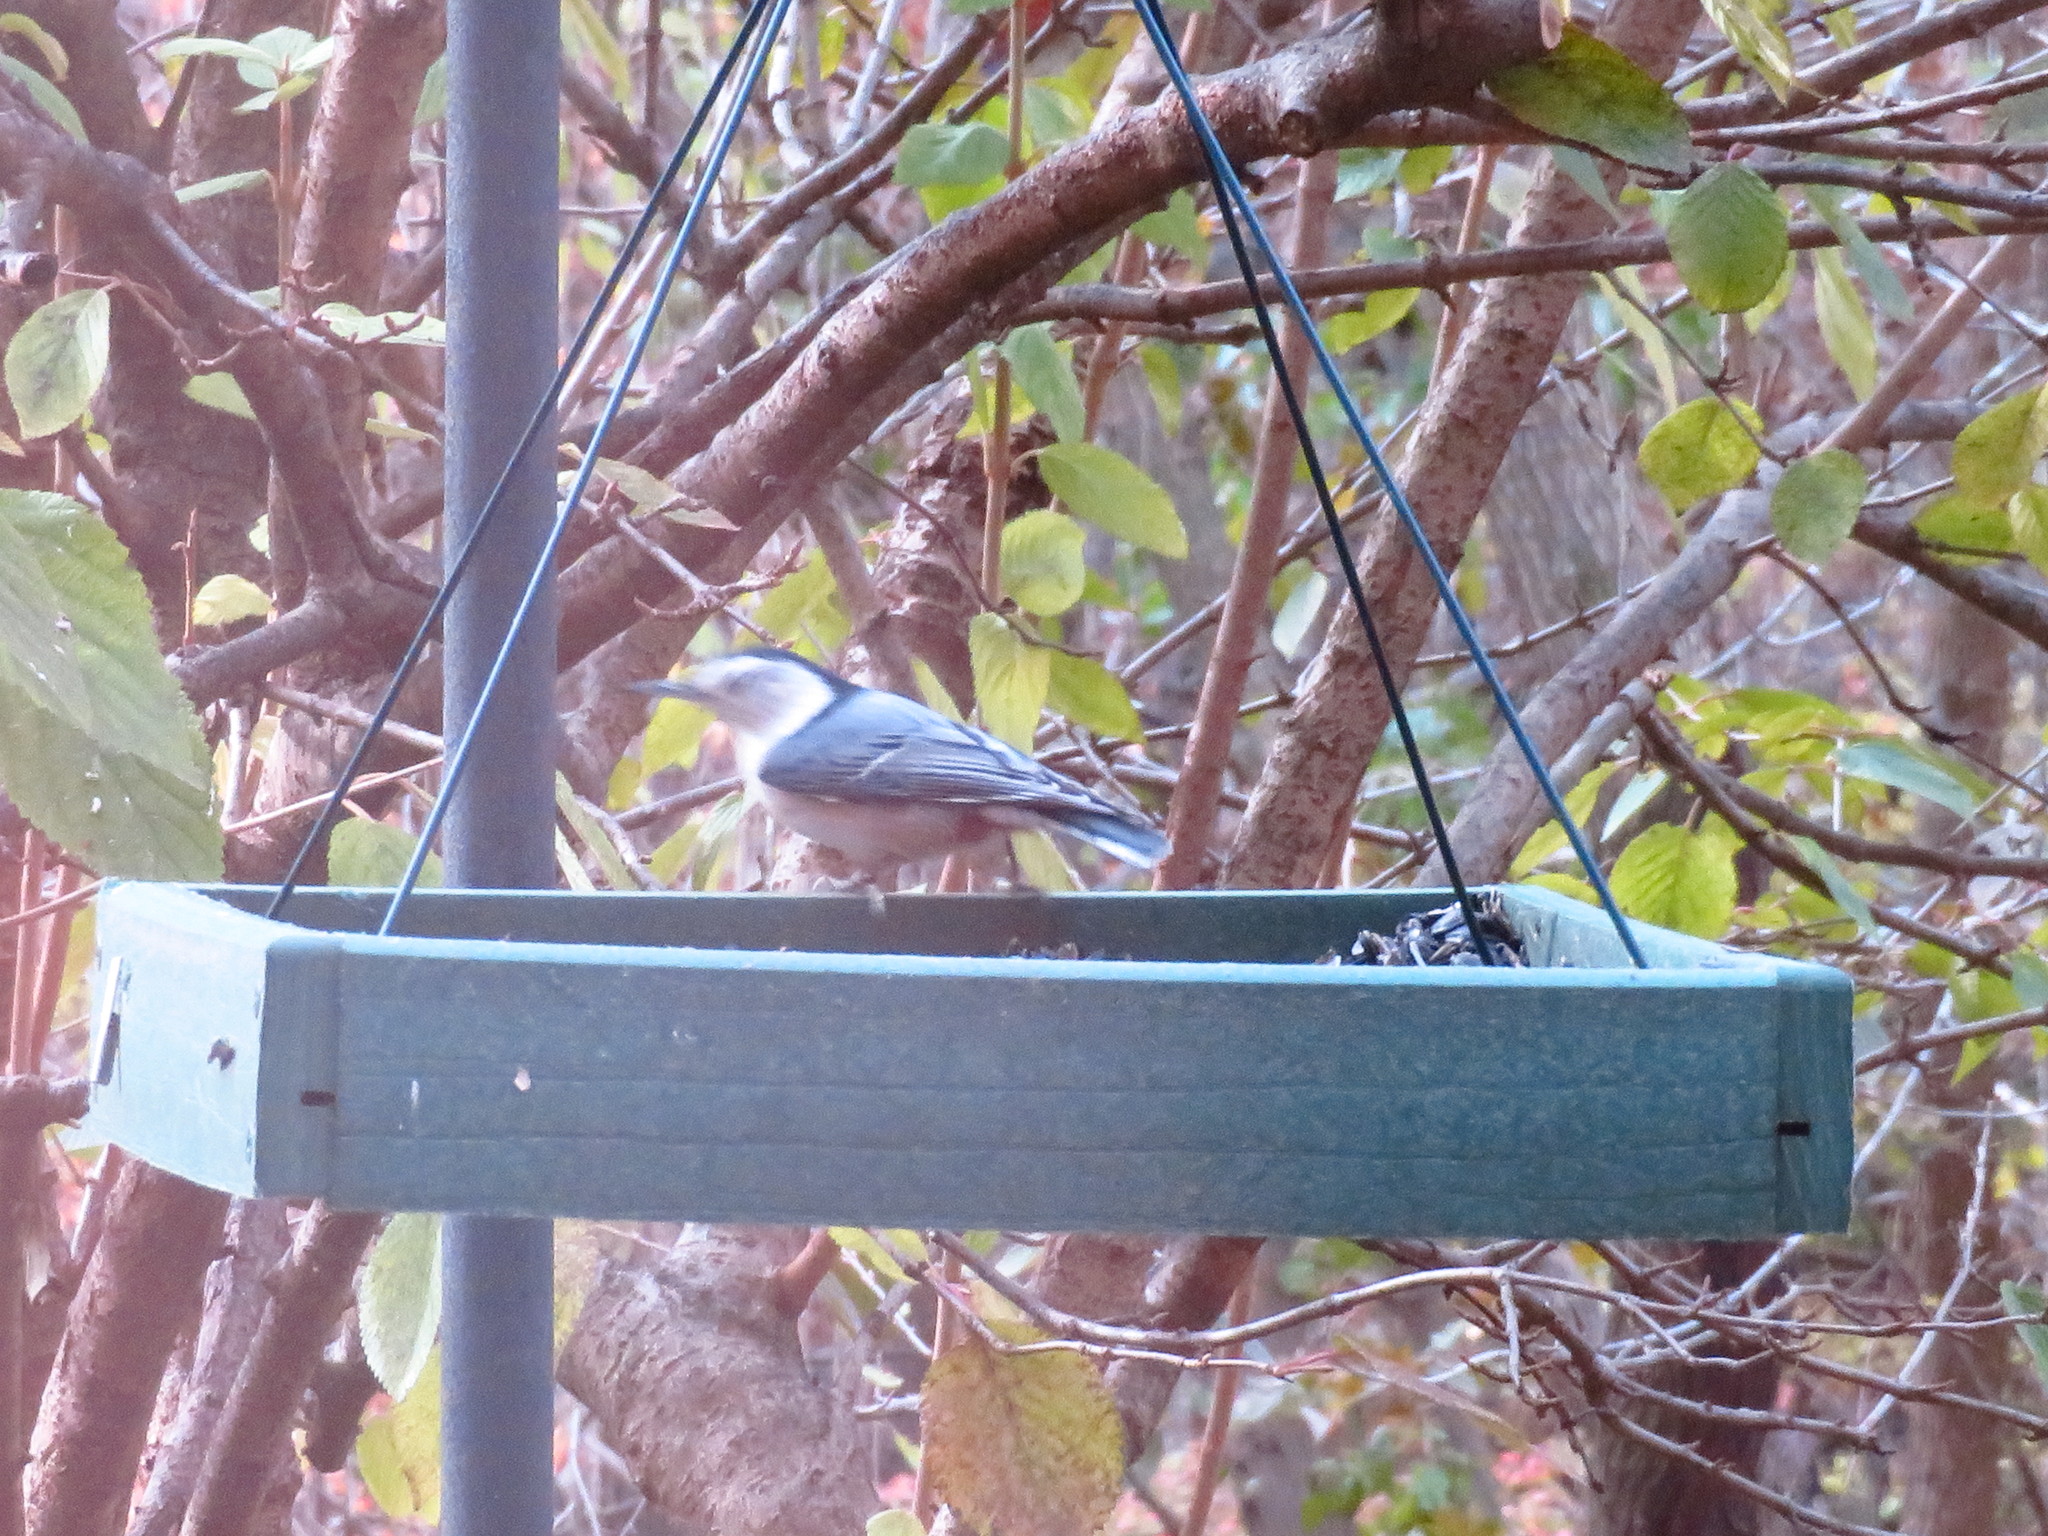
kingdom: Animalia
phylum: Chordata
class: Aves
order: Passeriformes
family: Sittidae
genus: Sitta
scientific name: Sitta carolinensis
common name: White-breasted nuthatch
